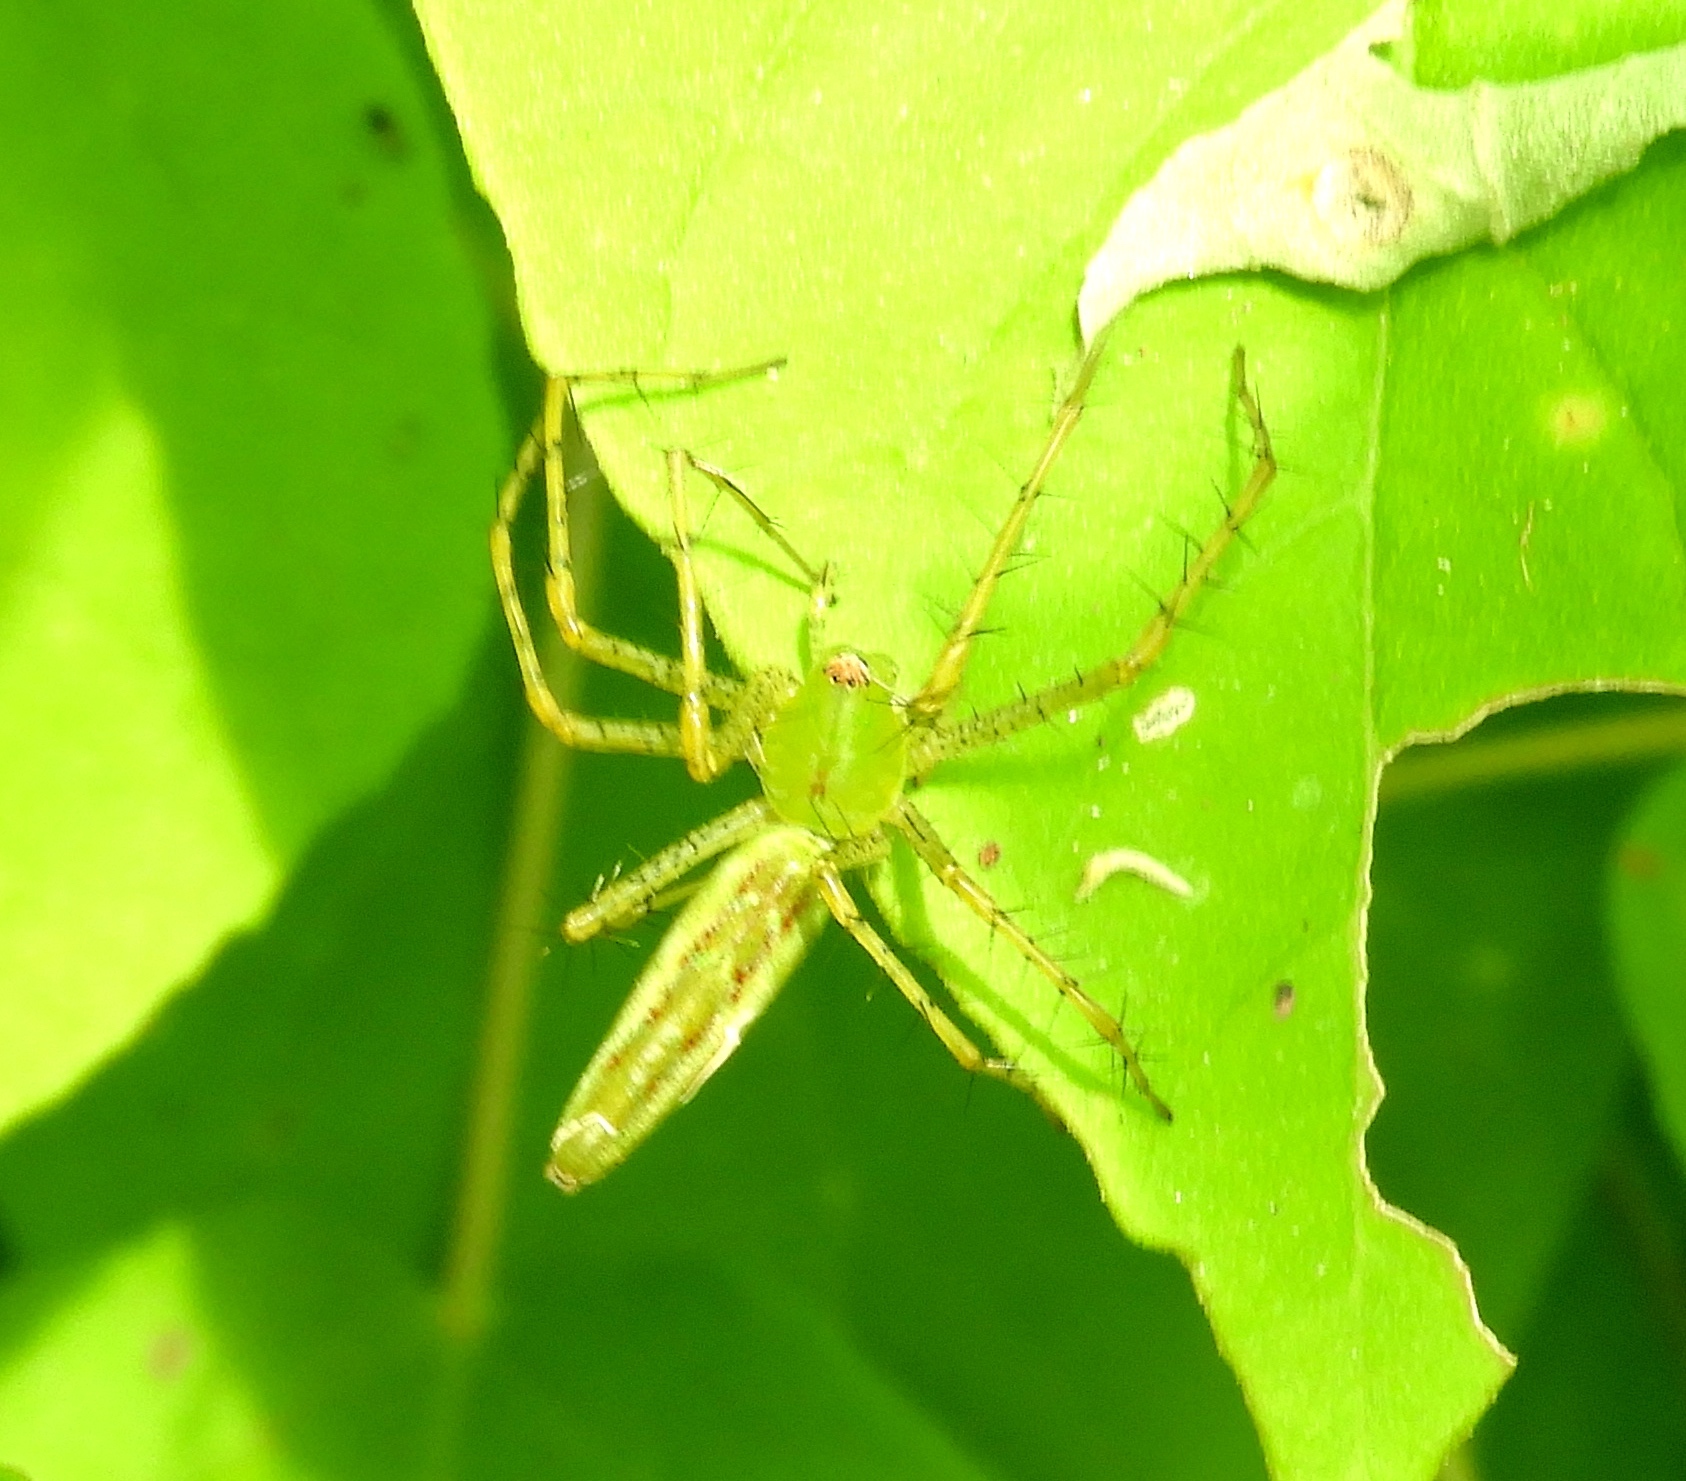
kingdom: Animalia
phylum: Arthropoda
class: Arachnida
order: Araneae
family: Oxyopidae
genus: Peucetia
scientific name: Peucetia
